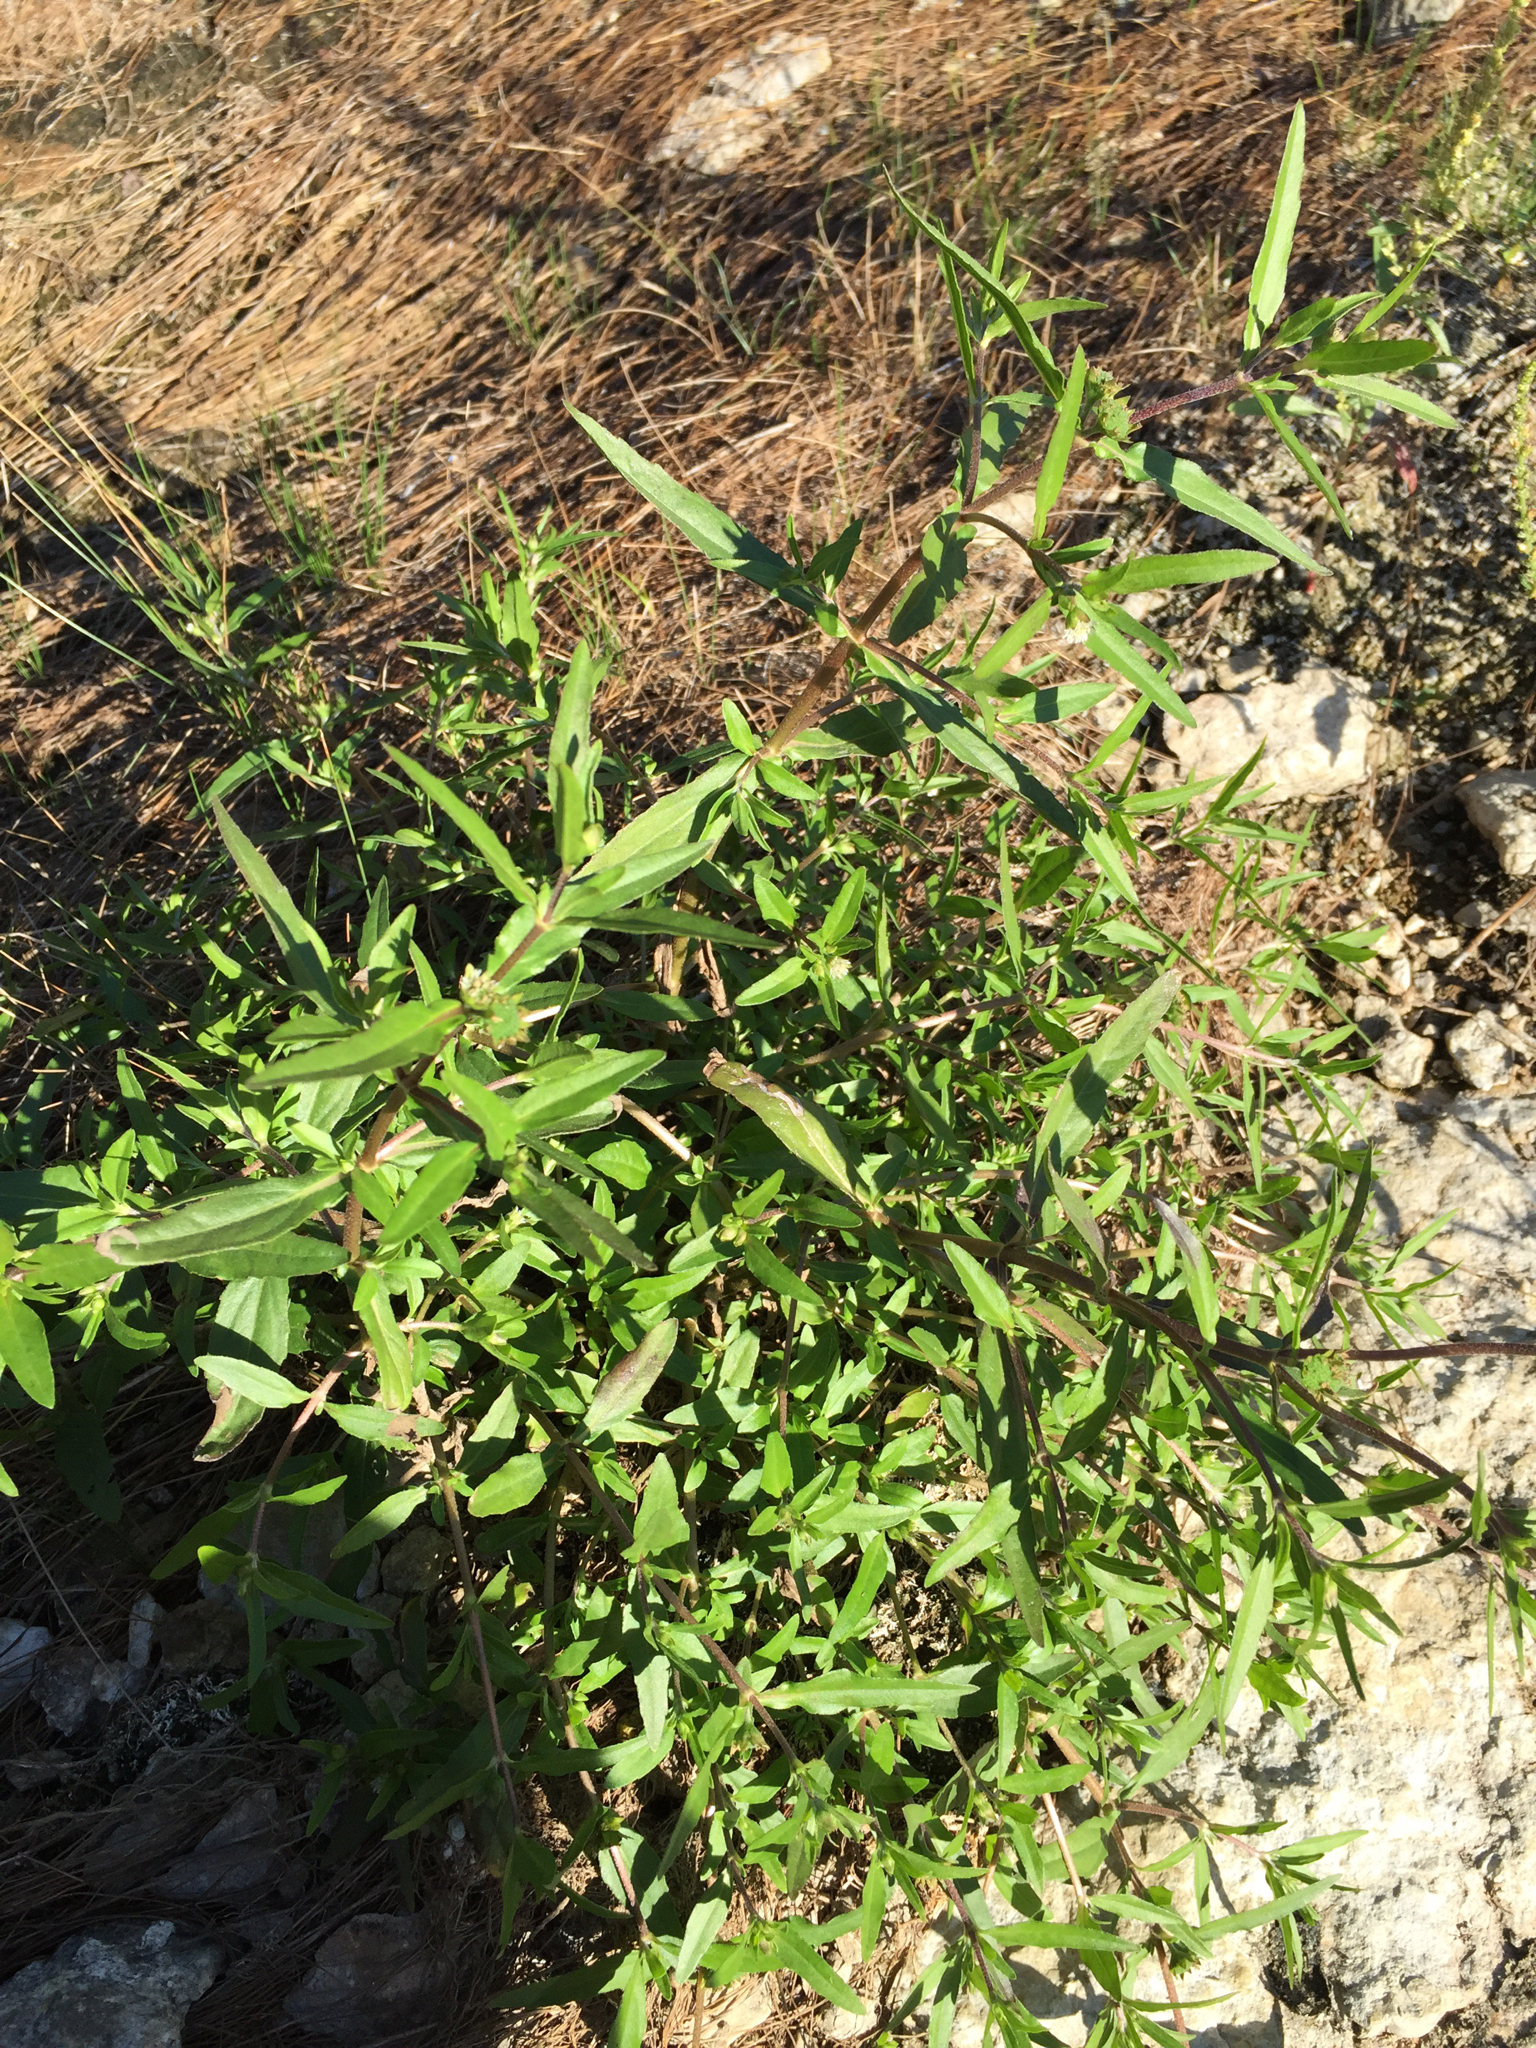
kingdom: Plantae
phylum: Tracheophyta
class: Magnoliopsida
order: Asterales
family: Asteraceae
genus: Eclipta
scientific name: Eclipta prostrata
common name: False daisy
